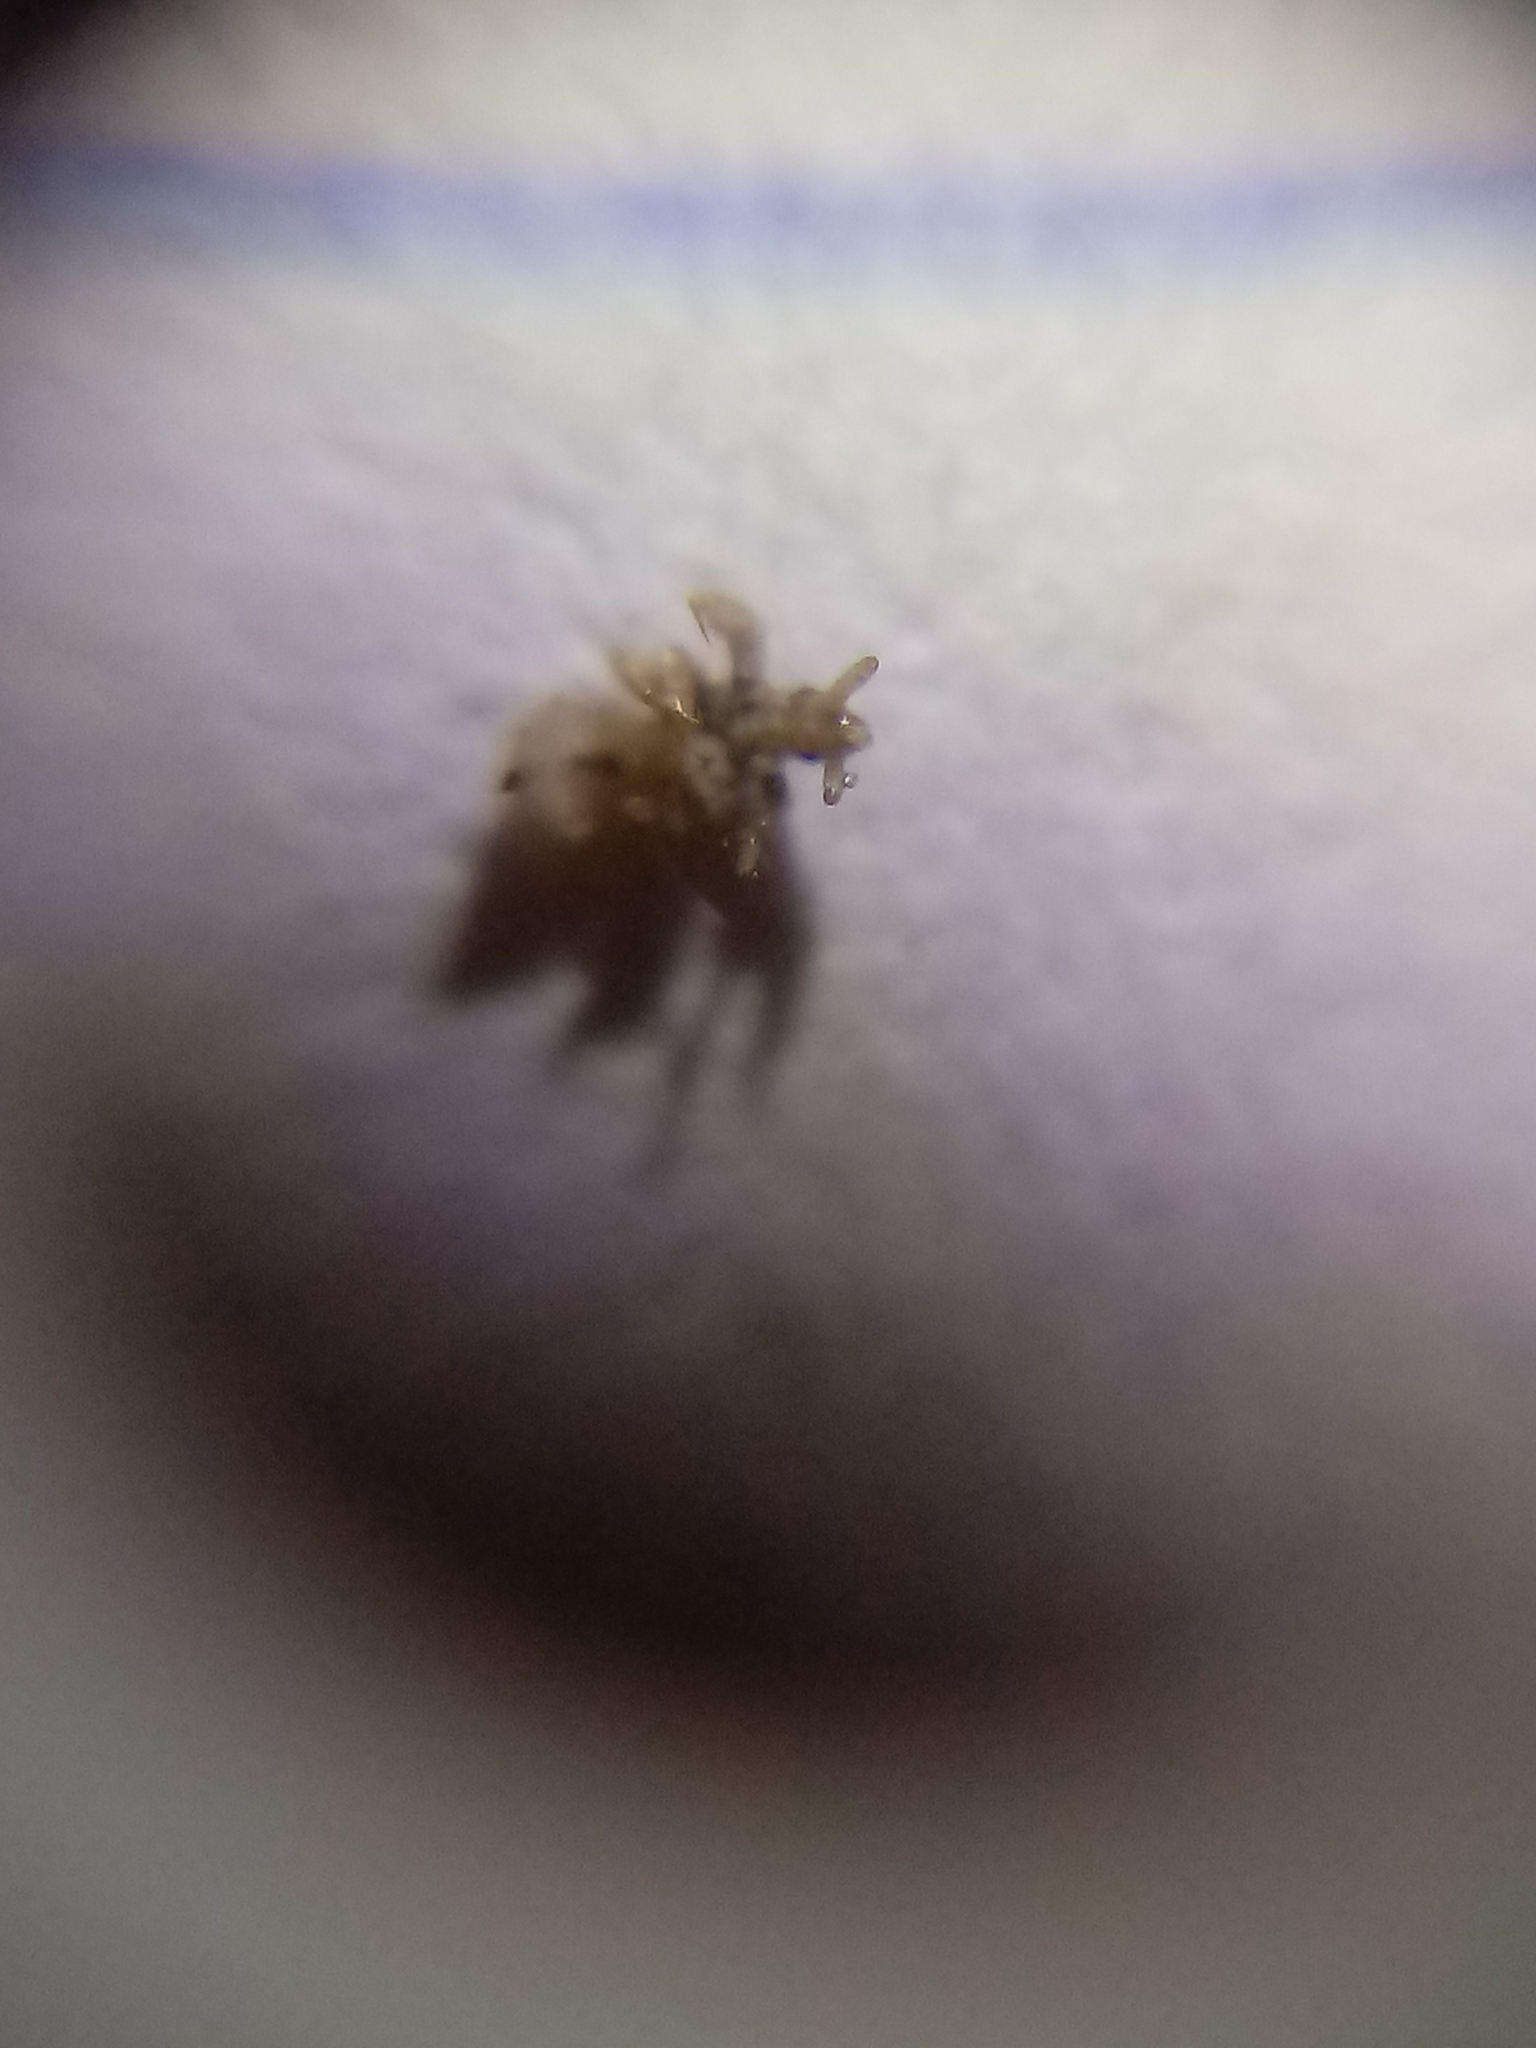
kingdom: Animalia
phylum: Arthropoda
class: Insecta
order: Psocodea
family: Pediculidae
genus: Pediculus
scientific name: Pediculus humanus
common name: Body louse
